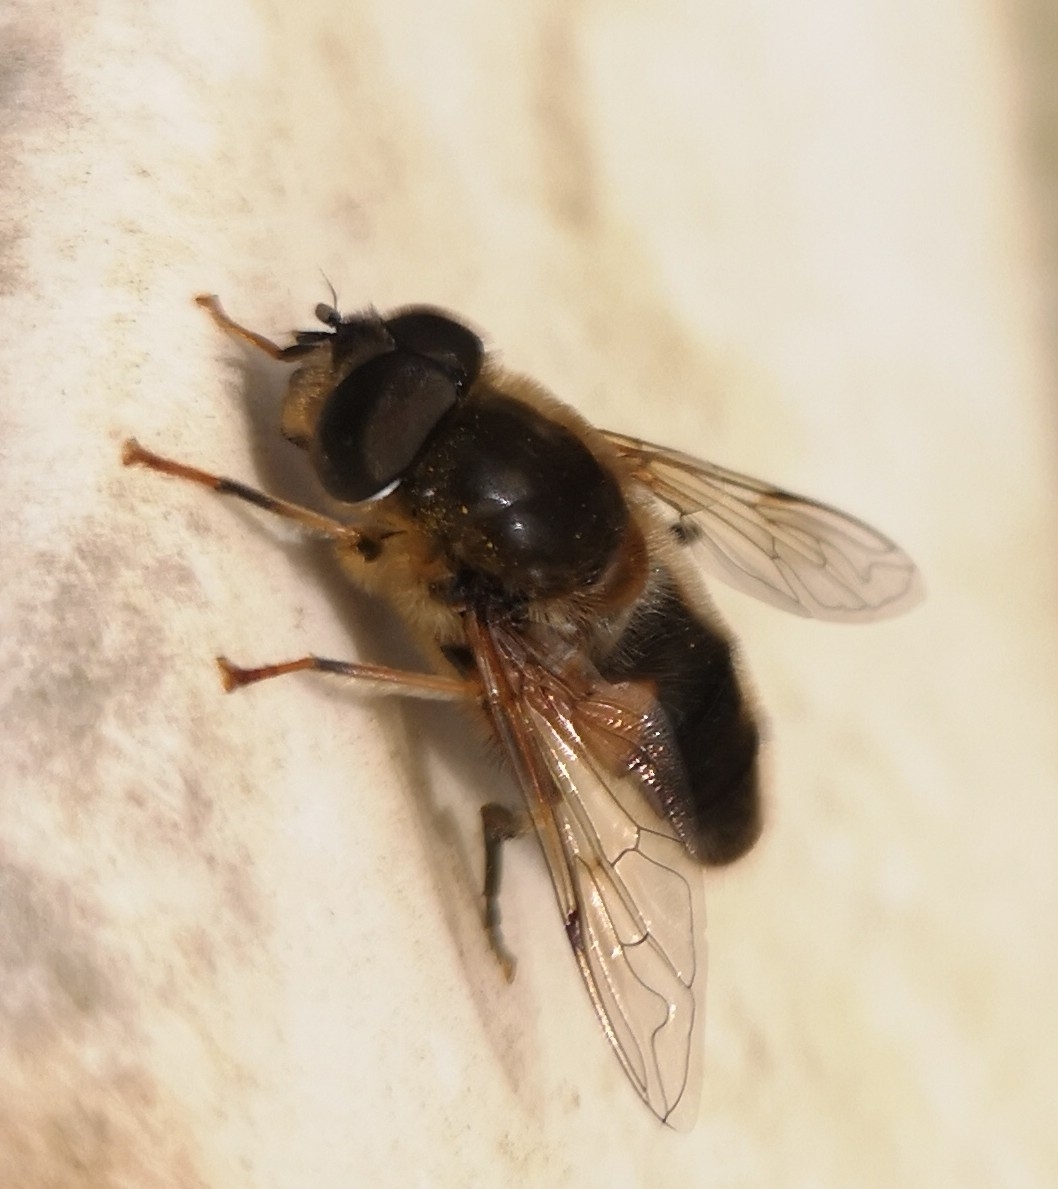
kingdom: Animalia
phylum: Arthropoda
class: Insecta
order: Diptera
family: Syrphidae
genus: Eristalis
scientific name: Eristalis pertinax
